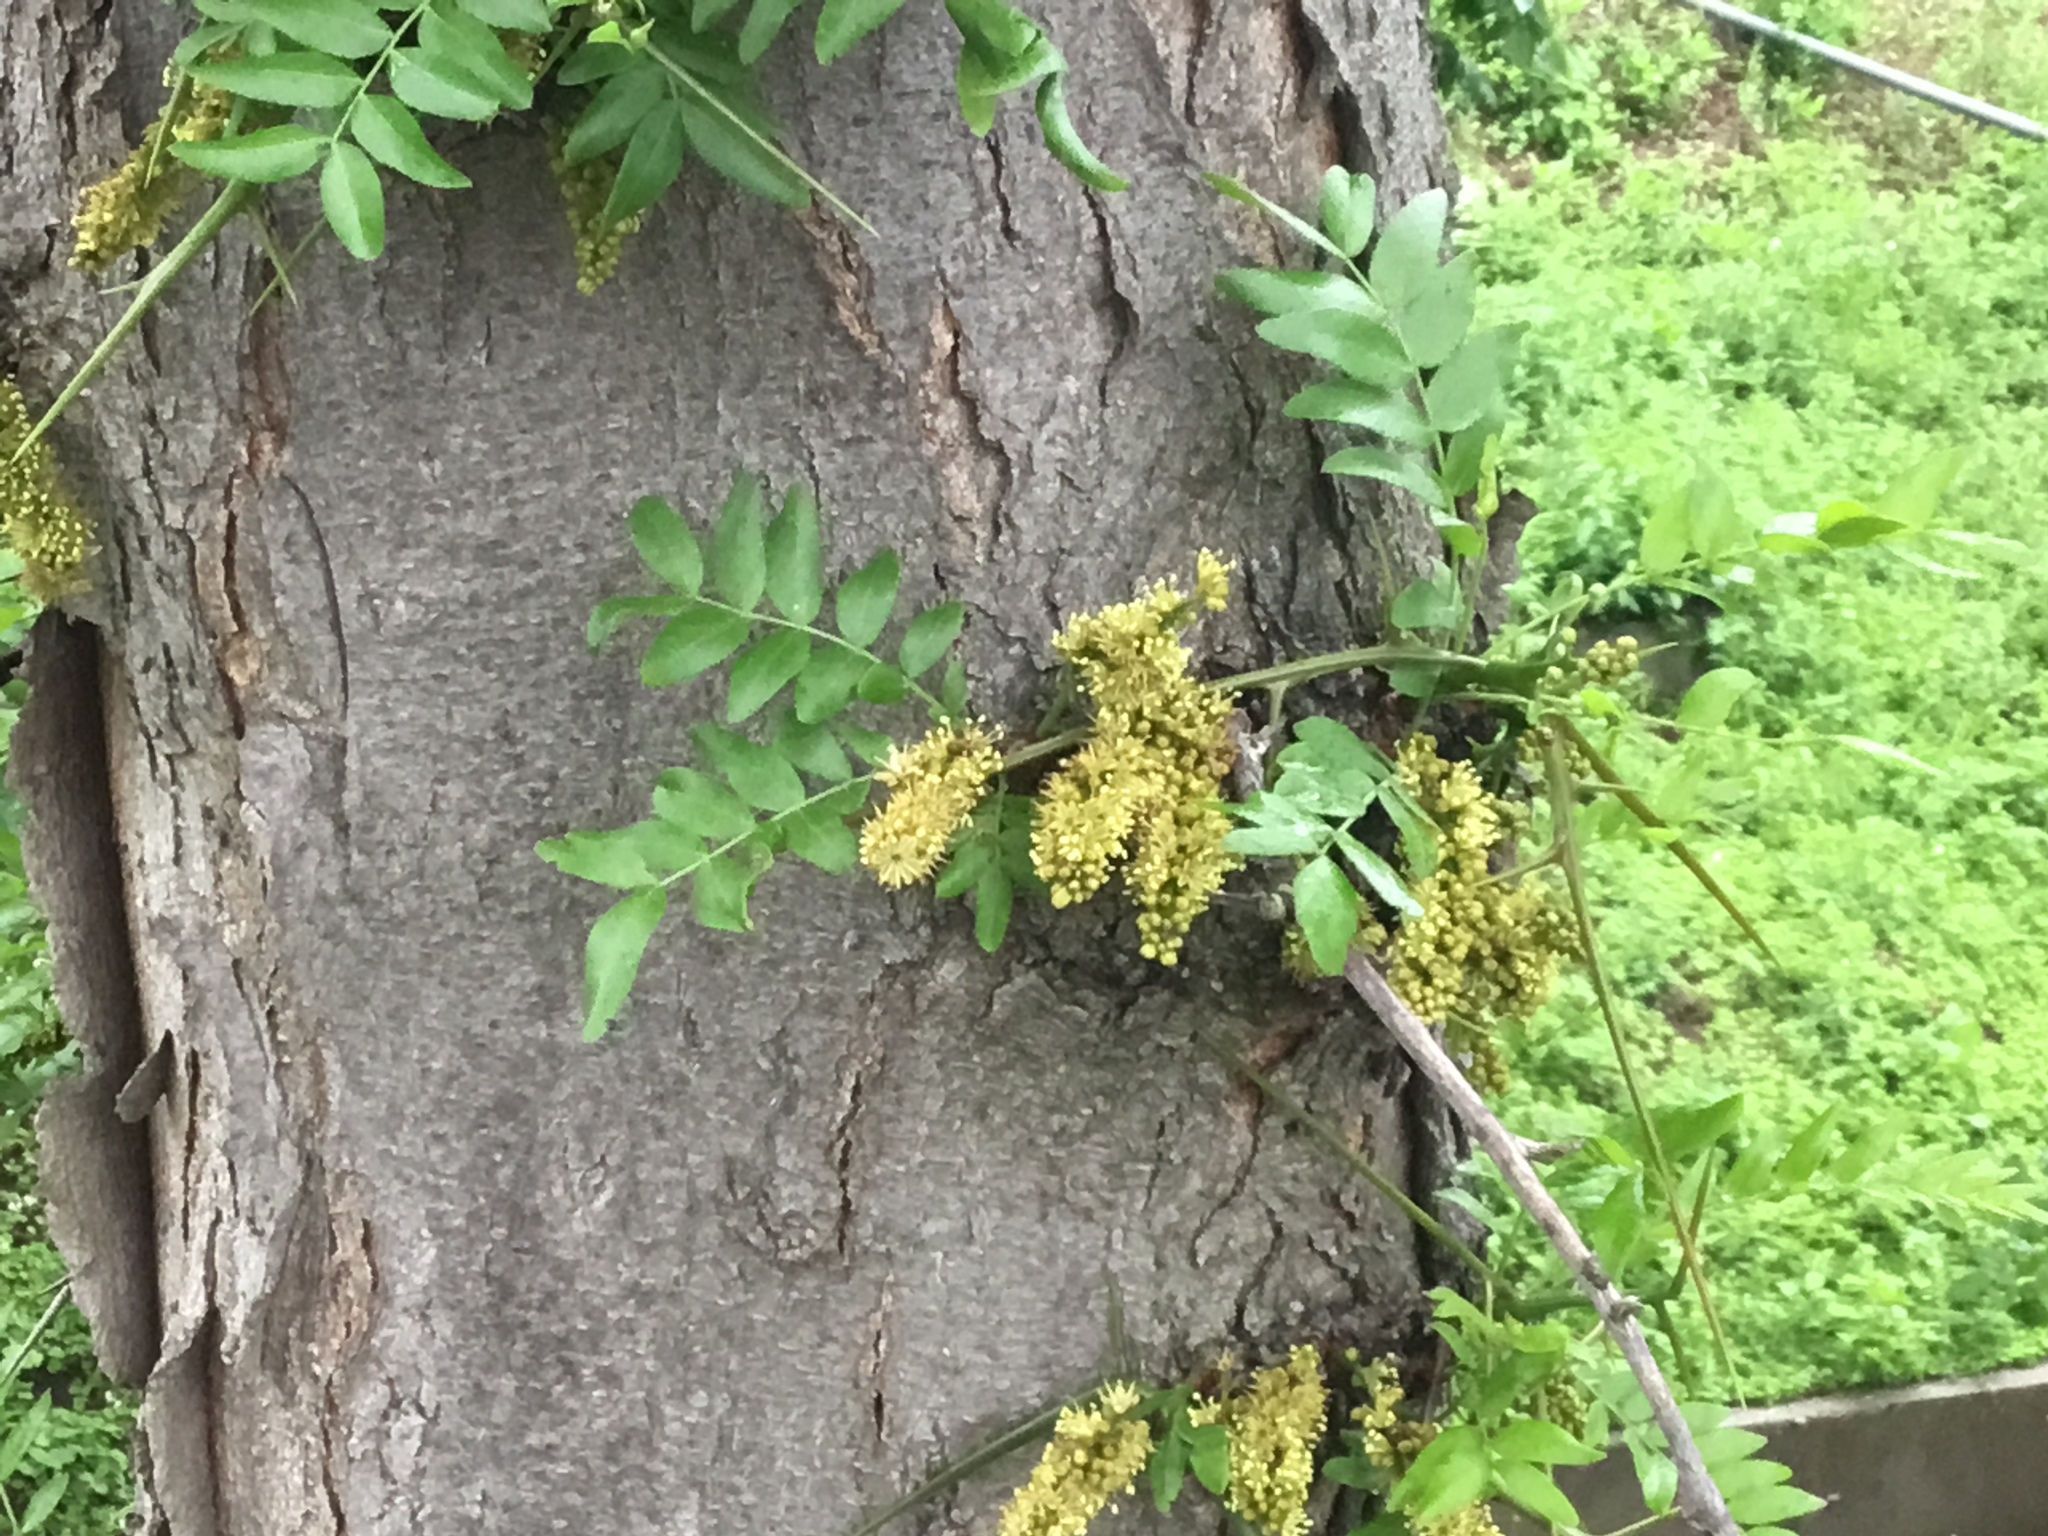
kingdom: Plantae
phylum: Tracheophyta
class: Magnoliopsida
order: Fabales
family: Fabaceae
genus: Gleditsia
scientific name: Gleditsia triacanthos
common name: Common honeylocust
